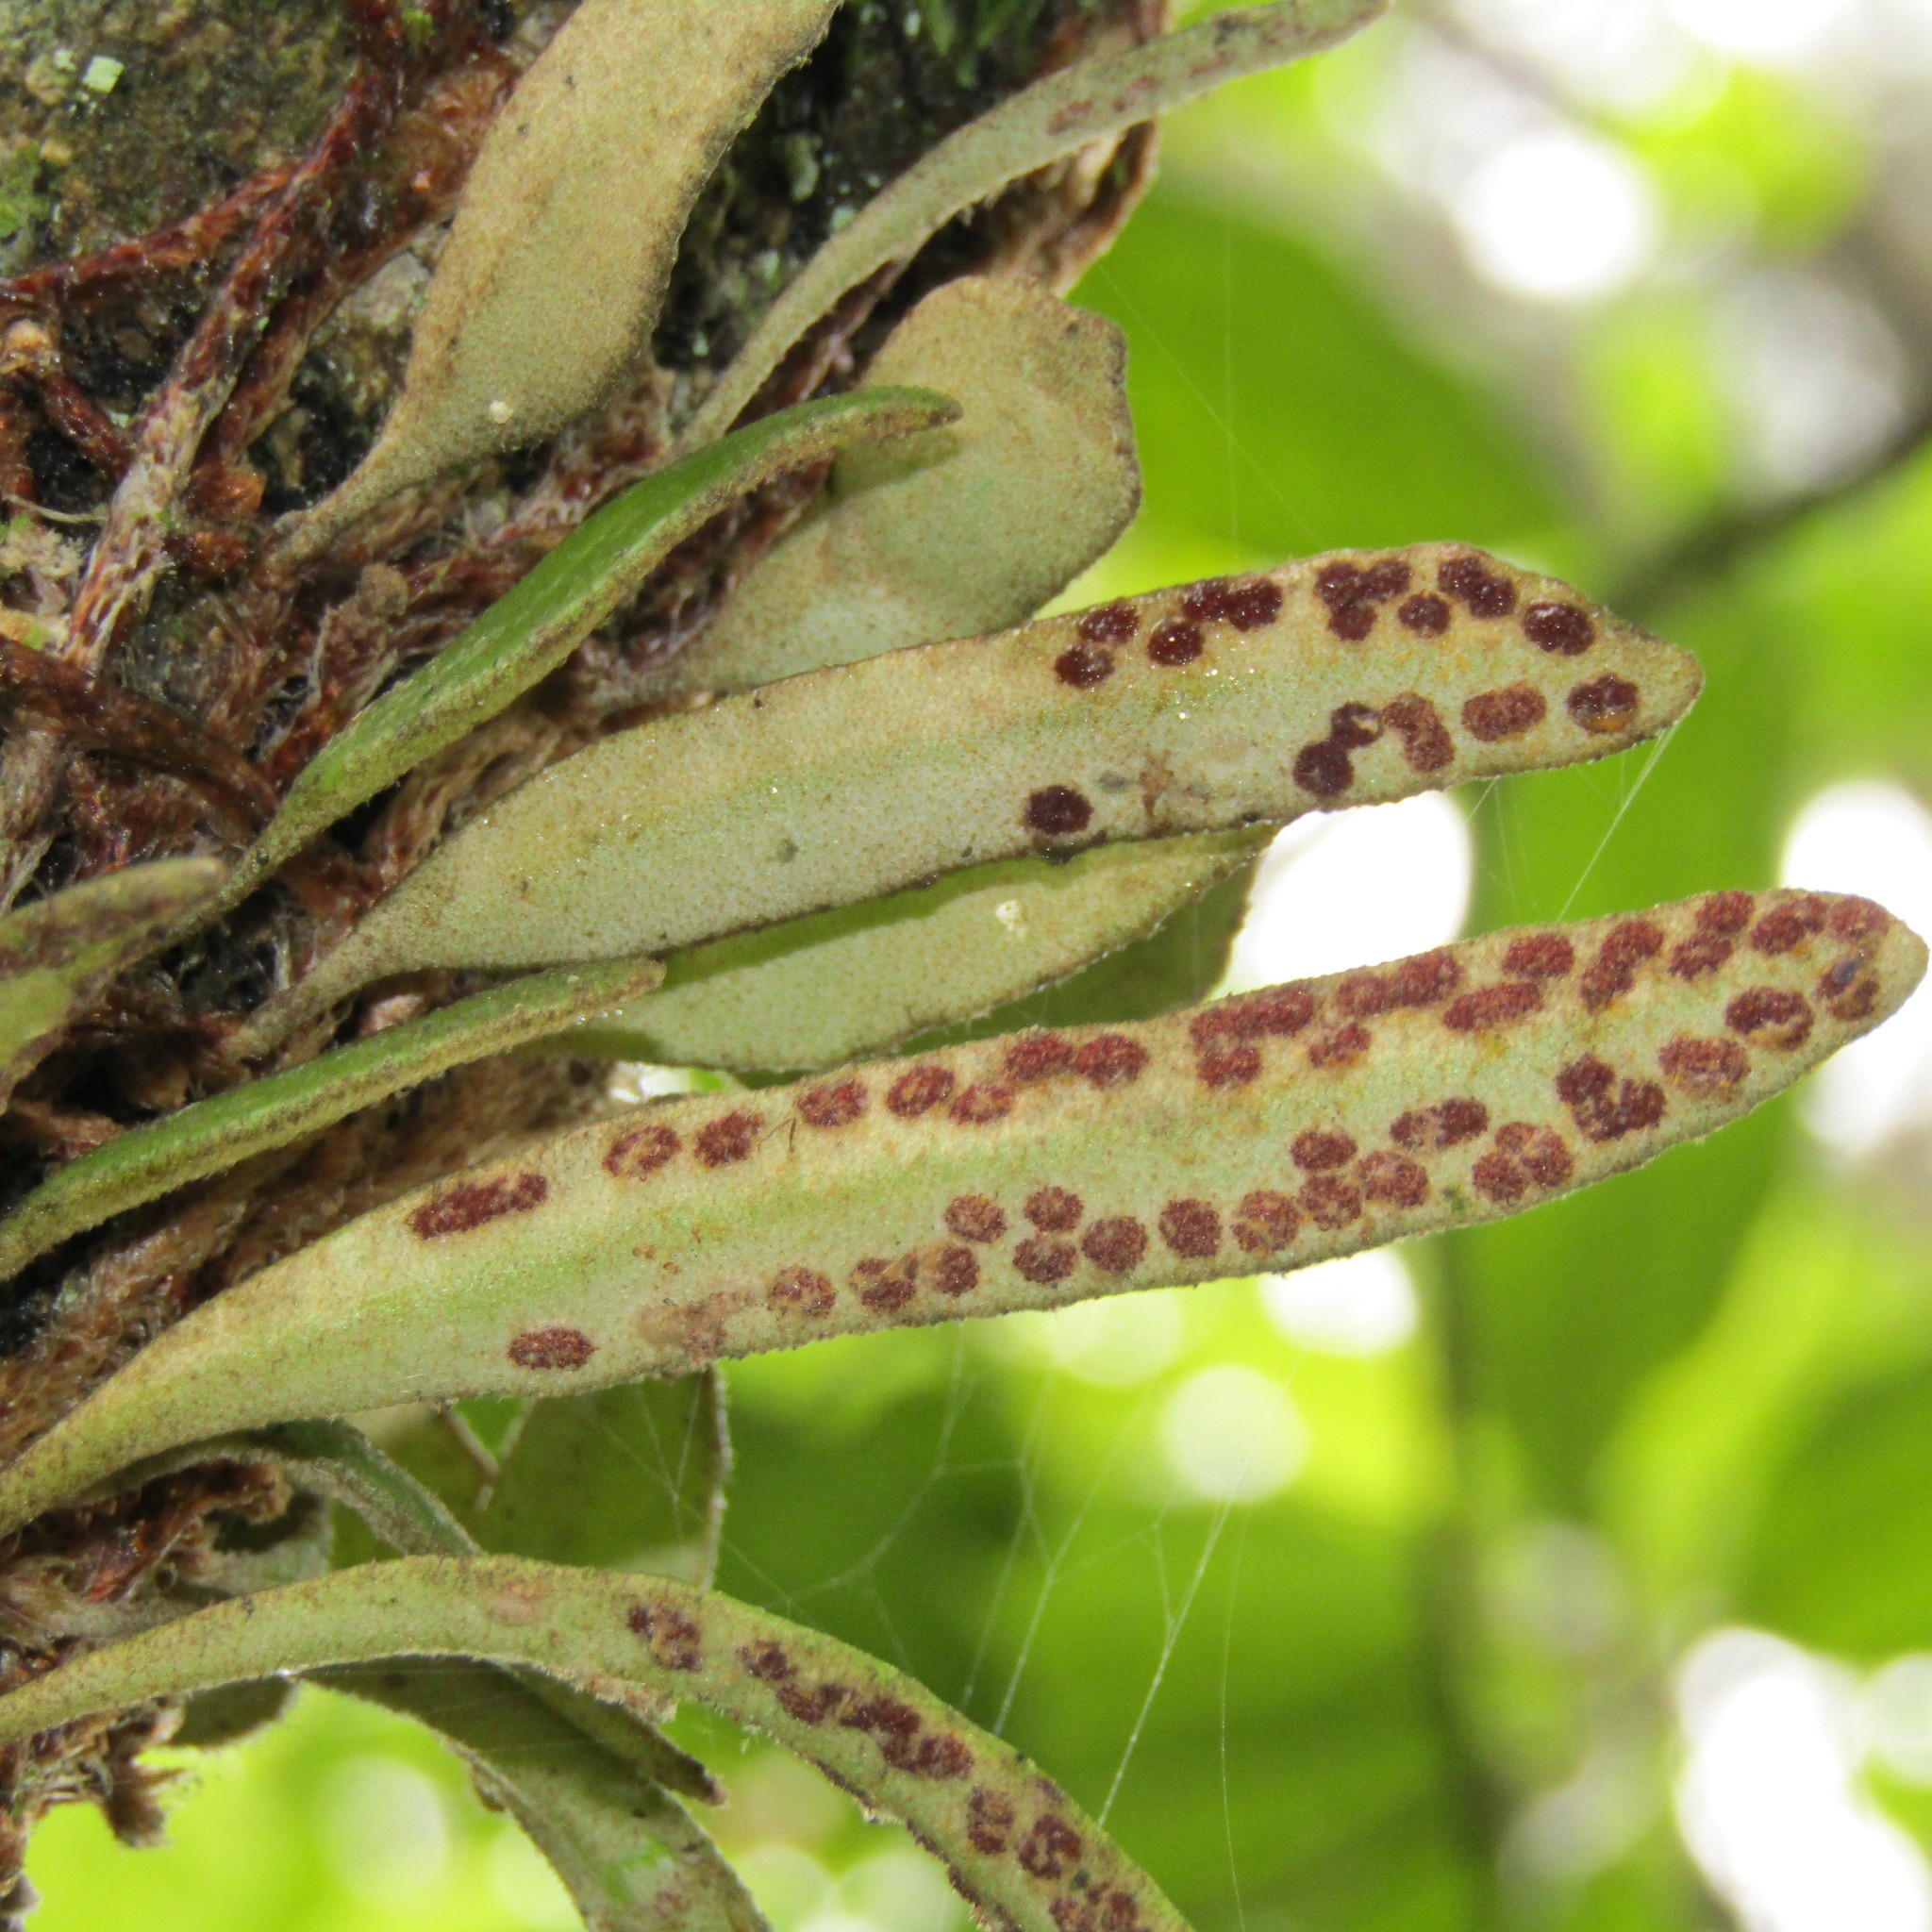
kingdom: Plantae
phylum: Tracheophyta
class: Polypodiopsida
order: Polypodiales
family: Polypodiaceae
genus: Pyrrosia
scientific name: Pyrrosia eleagnifolia
